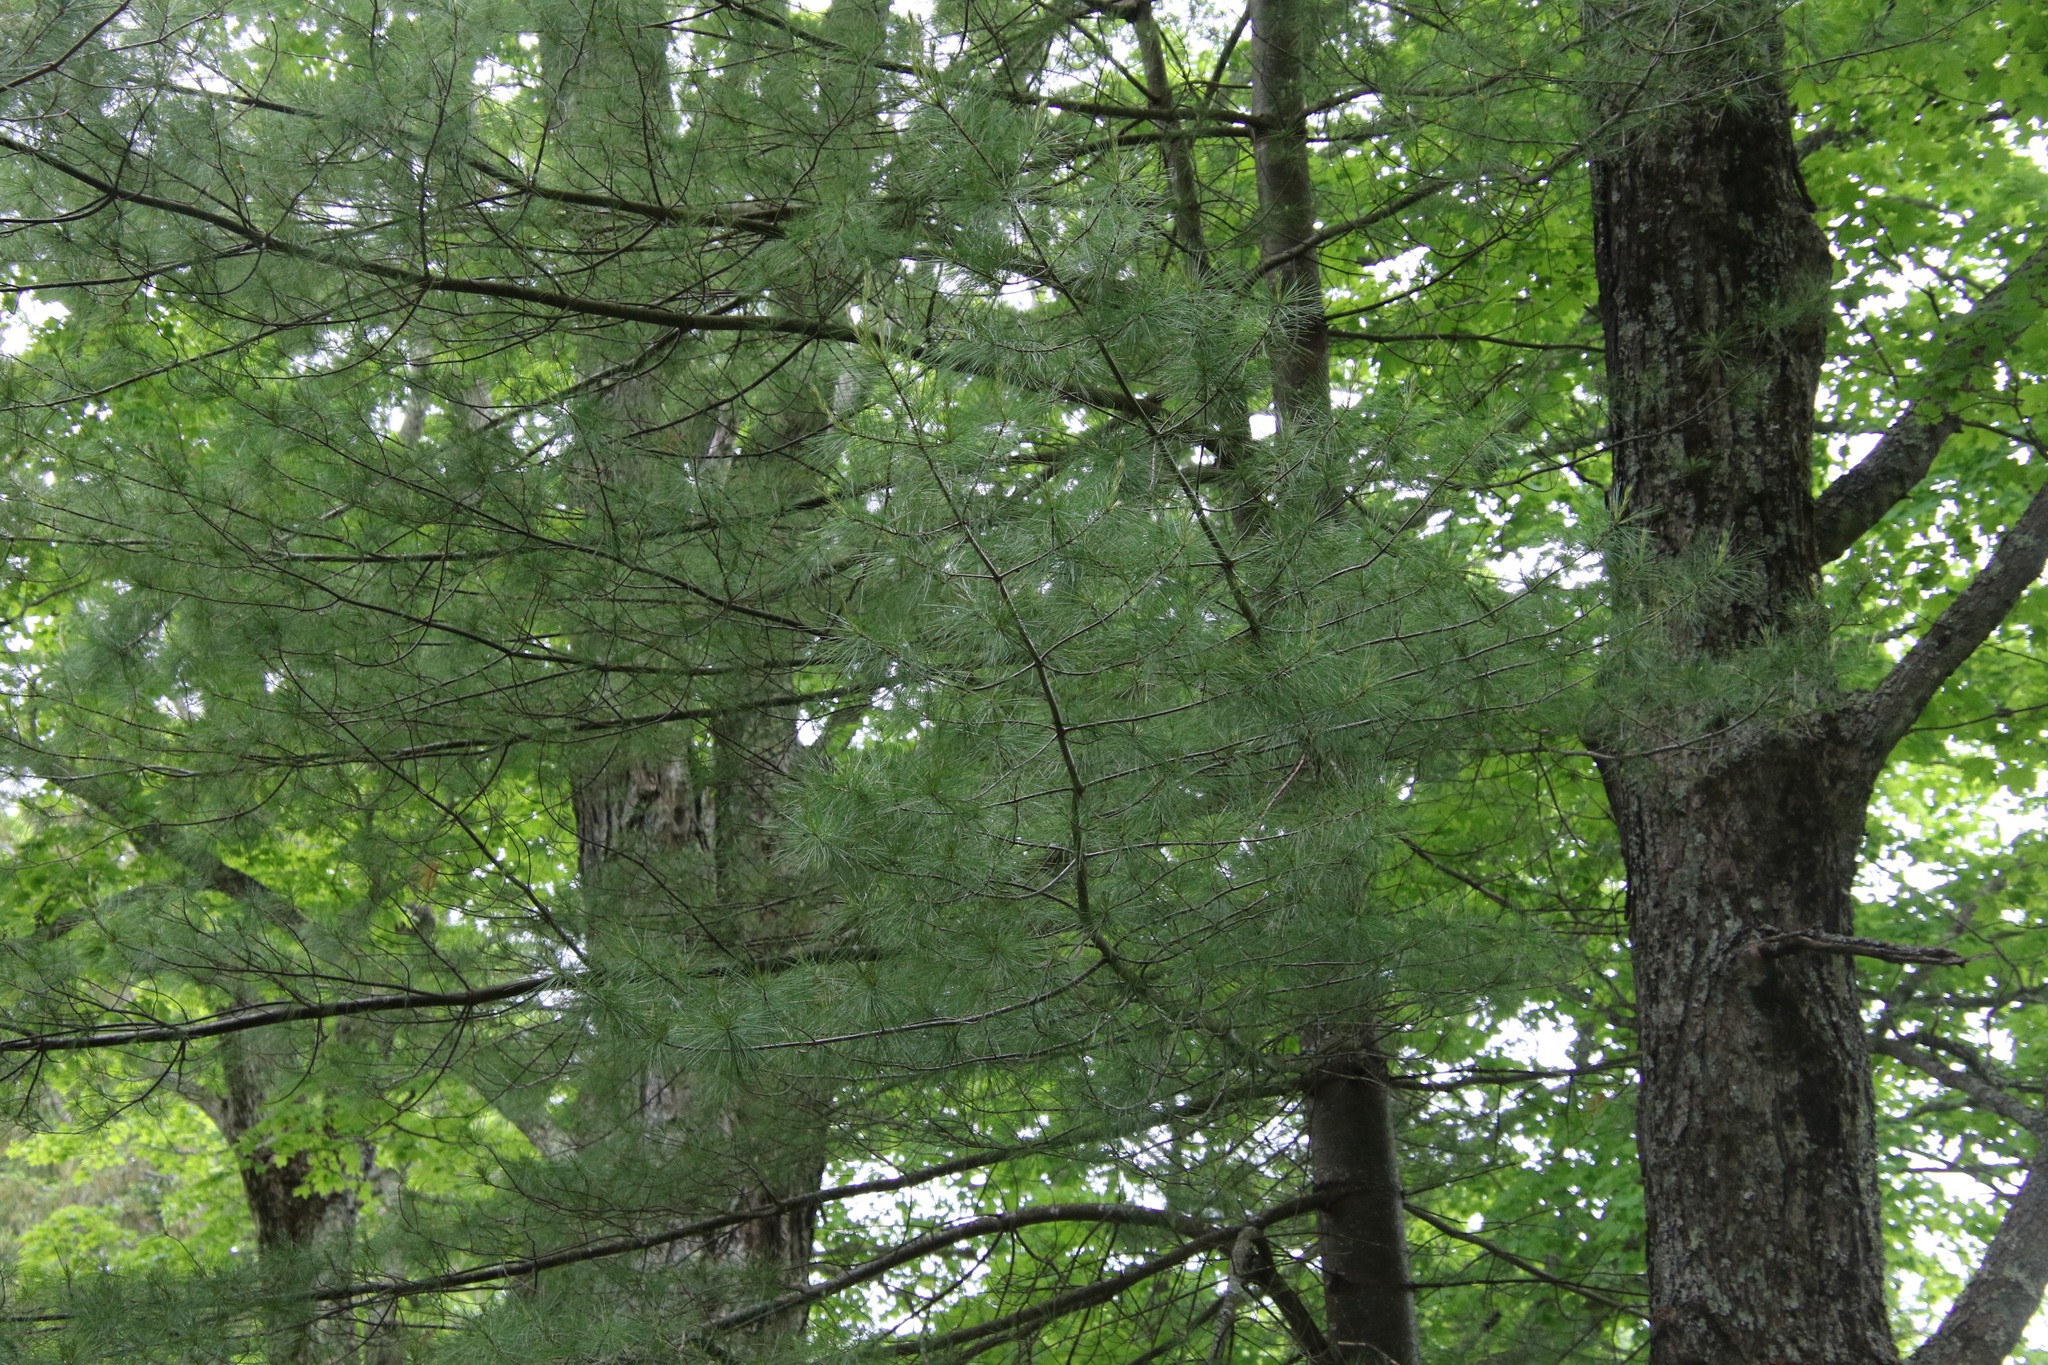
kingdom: Plantae
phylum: Tracheophyta
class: Pinopsida
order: Pinales
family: Pinaceae
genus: Pinus
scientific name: Pinus strobus
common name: Weymouth pine
